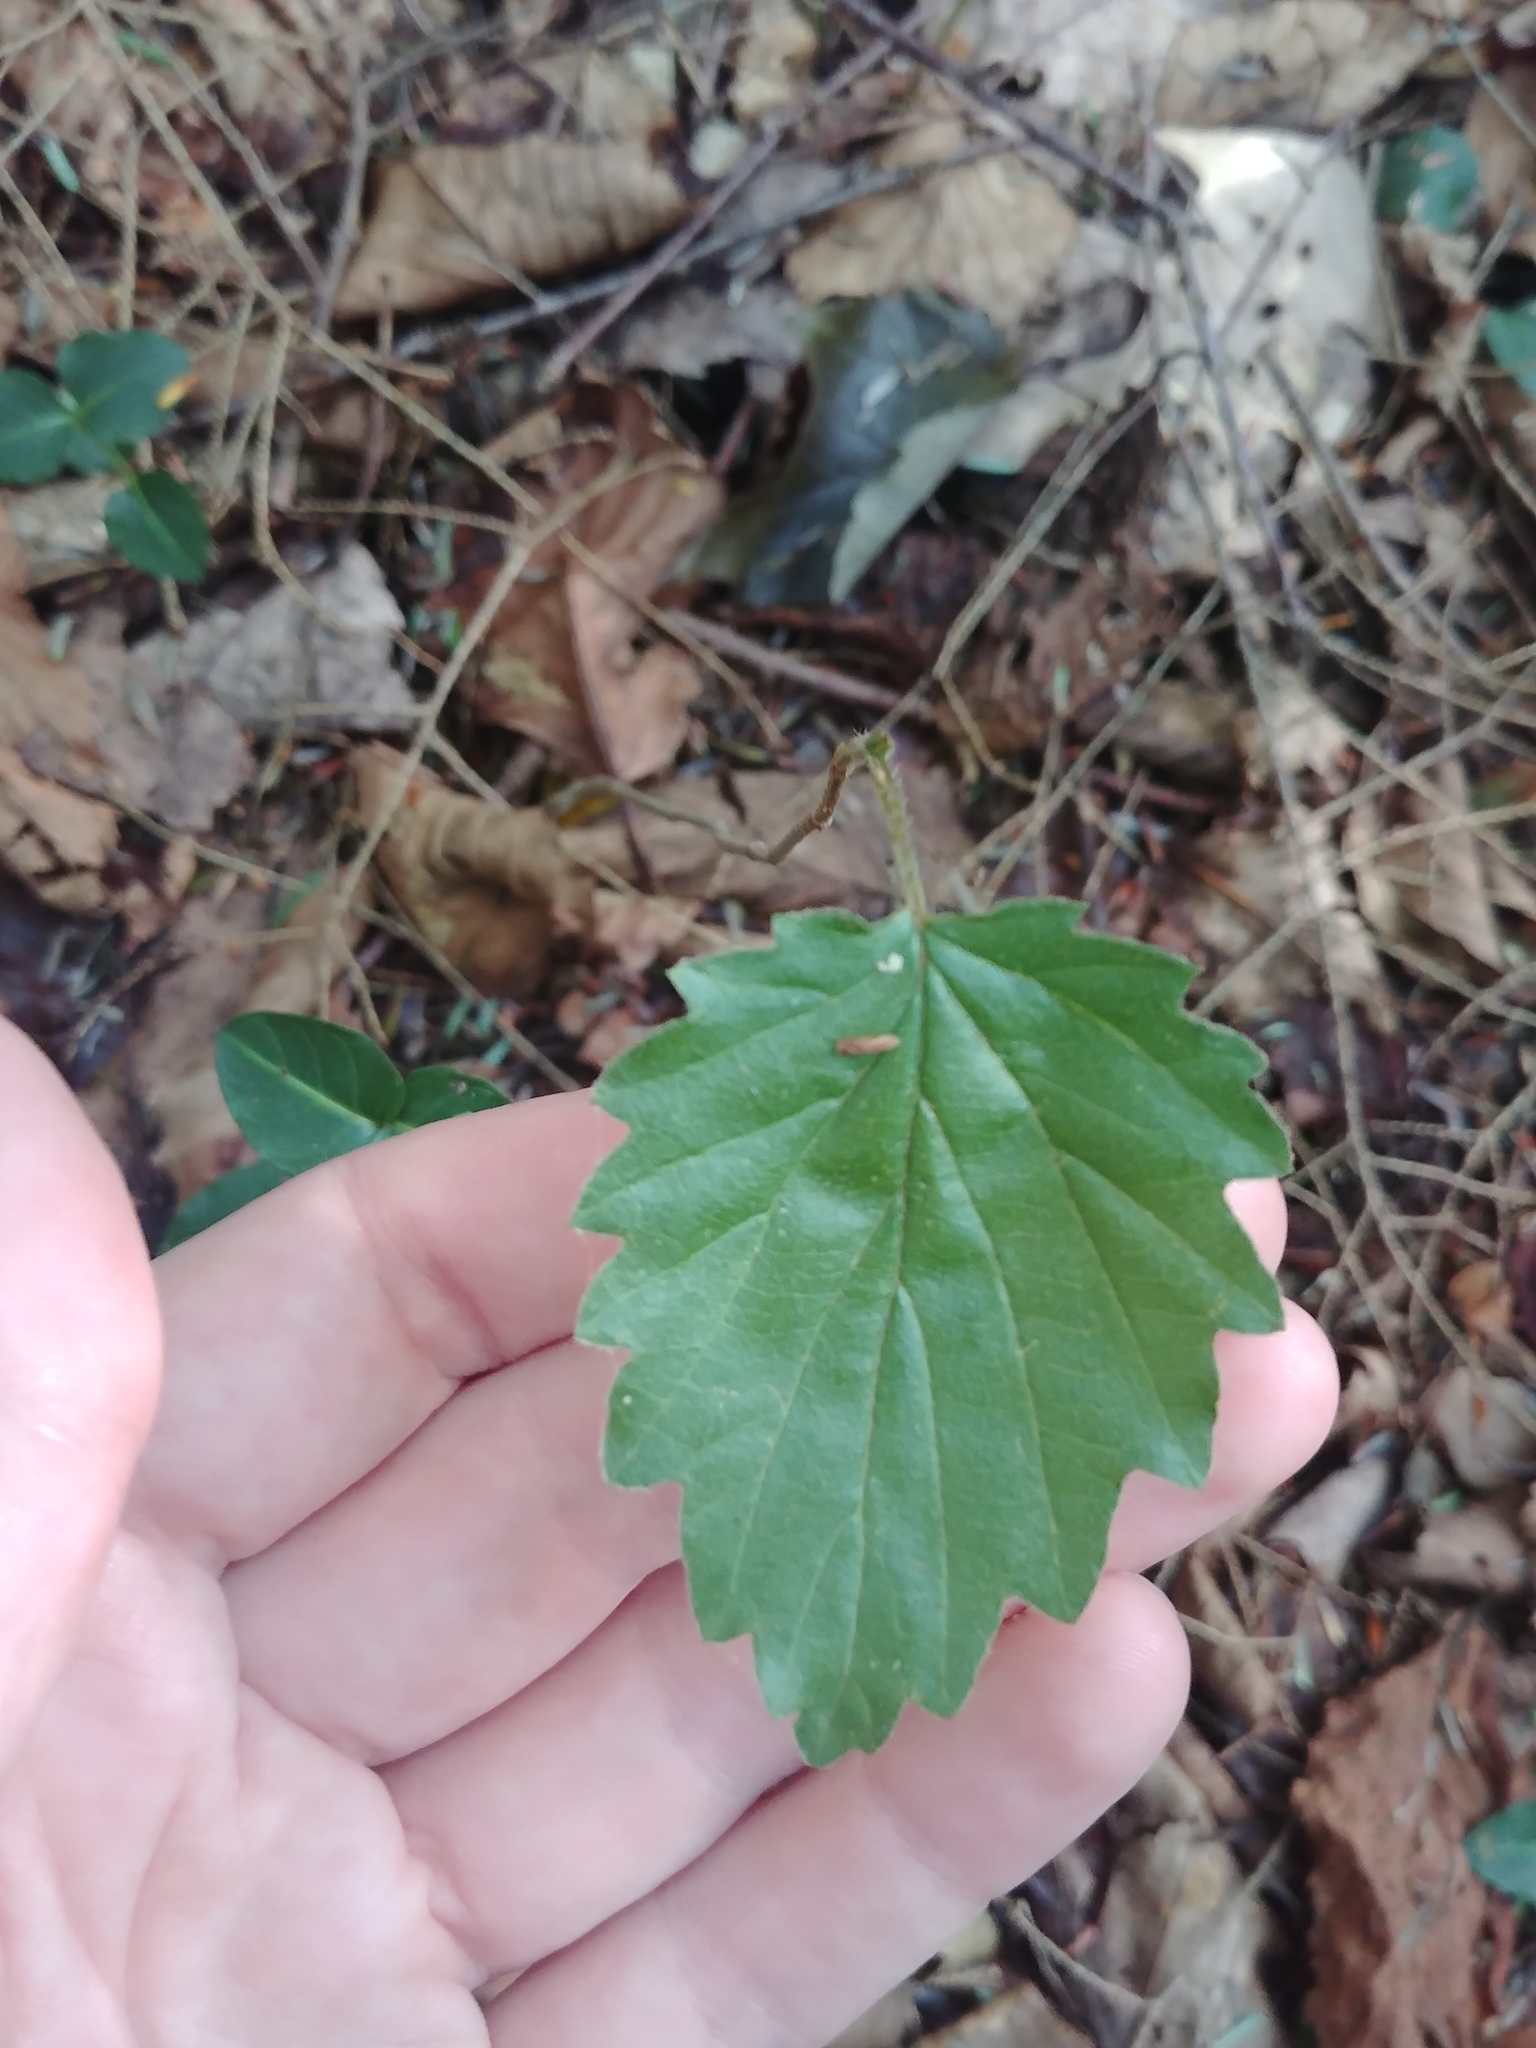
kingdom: Plantae
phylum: Tracheophyta
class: Magnoliopsida
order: Dipsacales
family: Viburnaceae
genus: Viburnum
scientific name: Viburnum dentatum
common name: Arrow-wood
